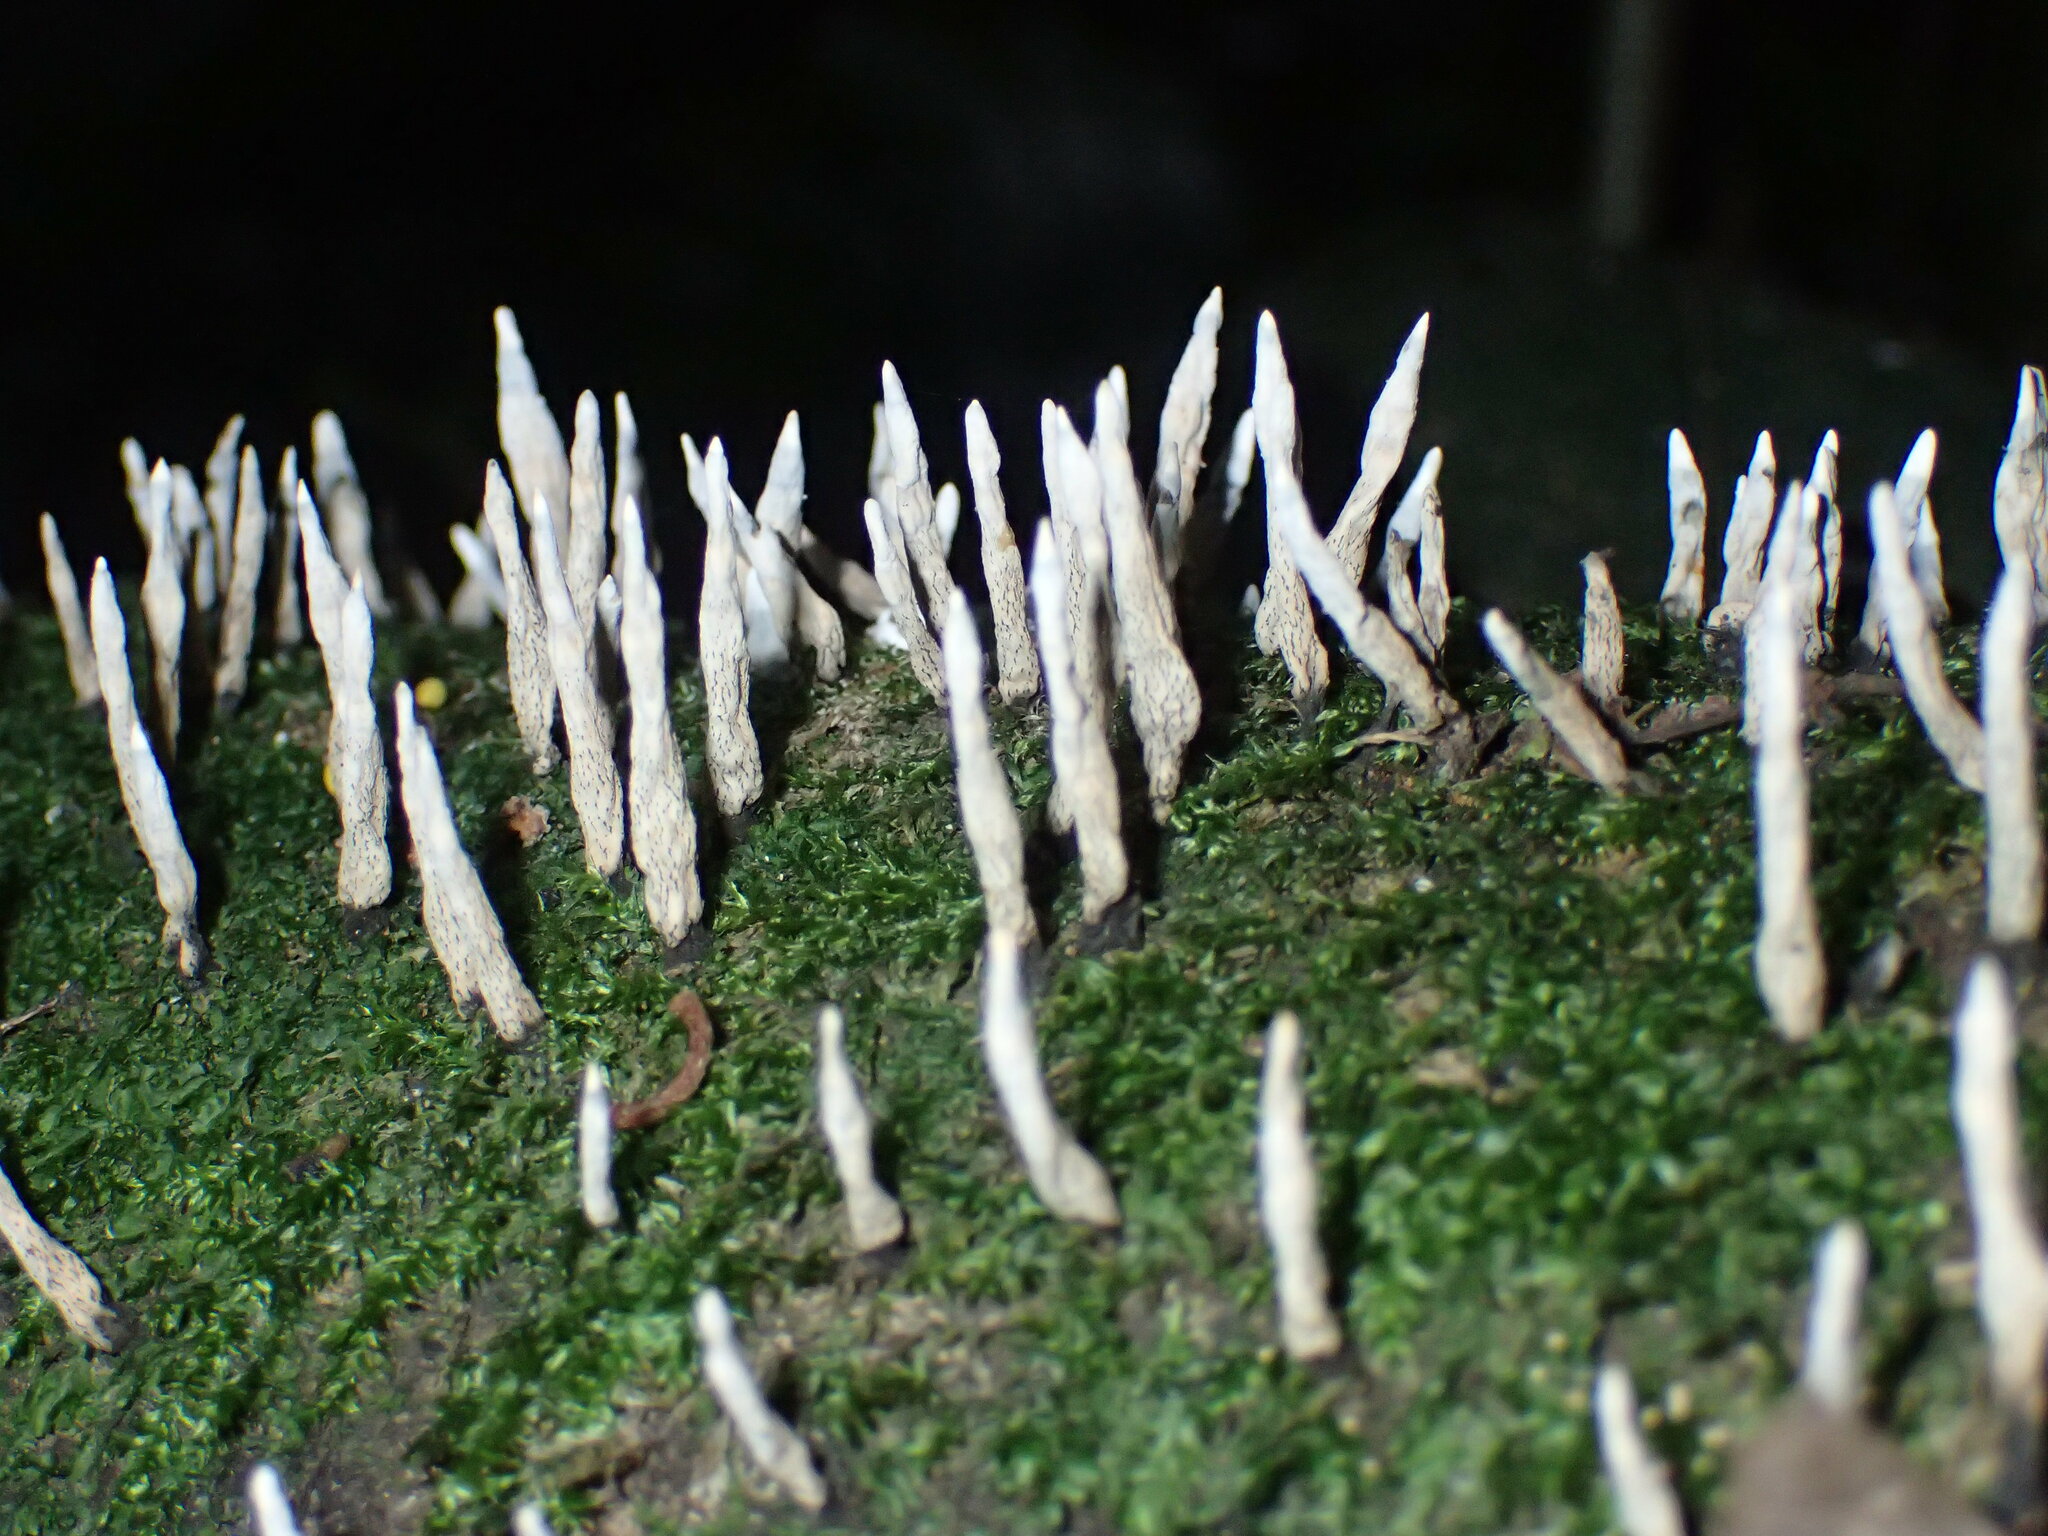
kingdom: Fungi
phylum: Ascomycota
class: Sordariomycetes
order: Xylariales
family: Xylariaceae
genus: Xylaria
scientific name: Xylaria hypoxylon
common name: Candle-snuff fungus
